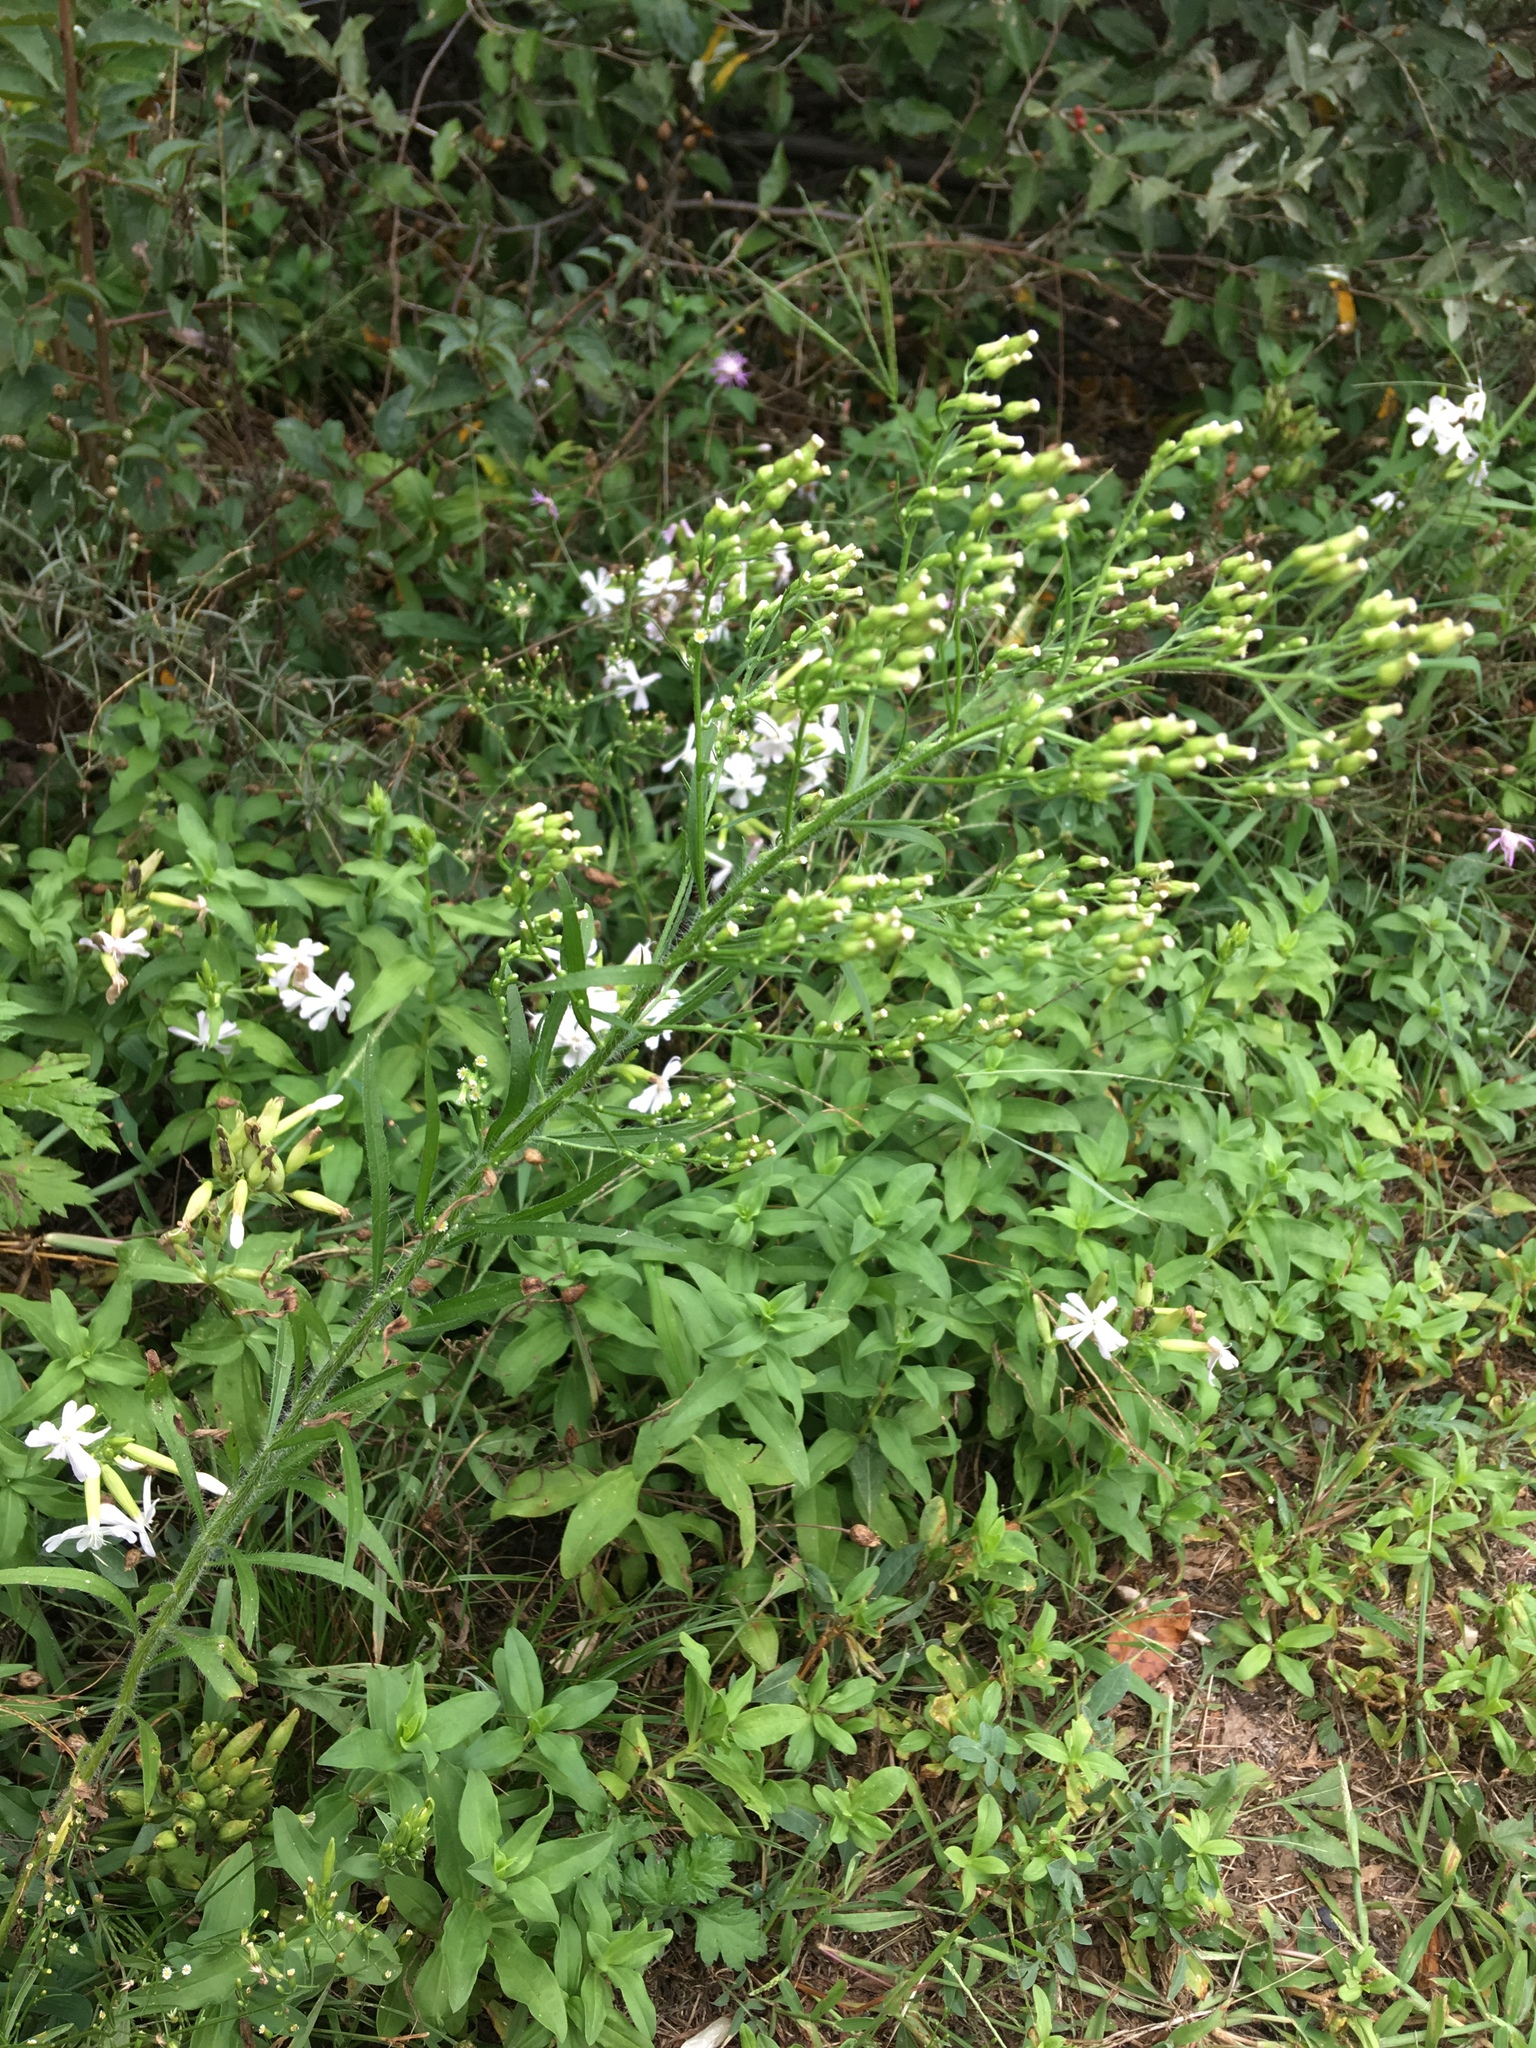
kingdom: Plantae
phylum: Tracheophyta
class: Magnoliopsida
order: Asterales
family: Asteraceae
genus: Erigeron
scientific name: Erigeron canadensis
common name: Canadian fleabane
